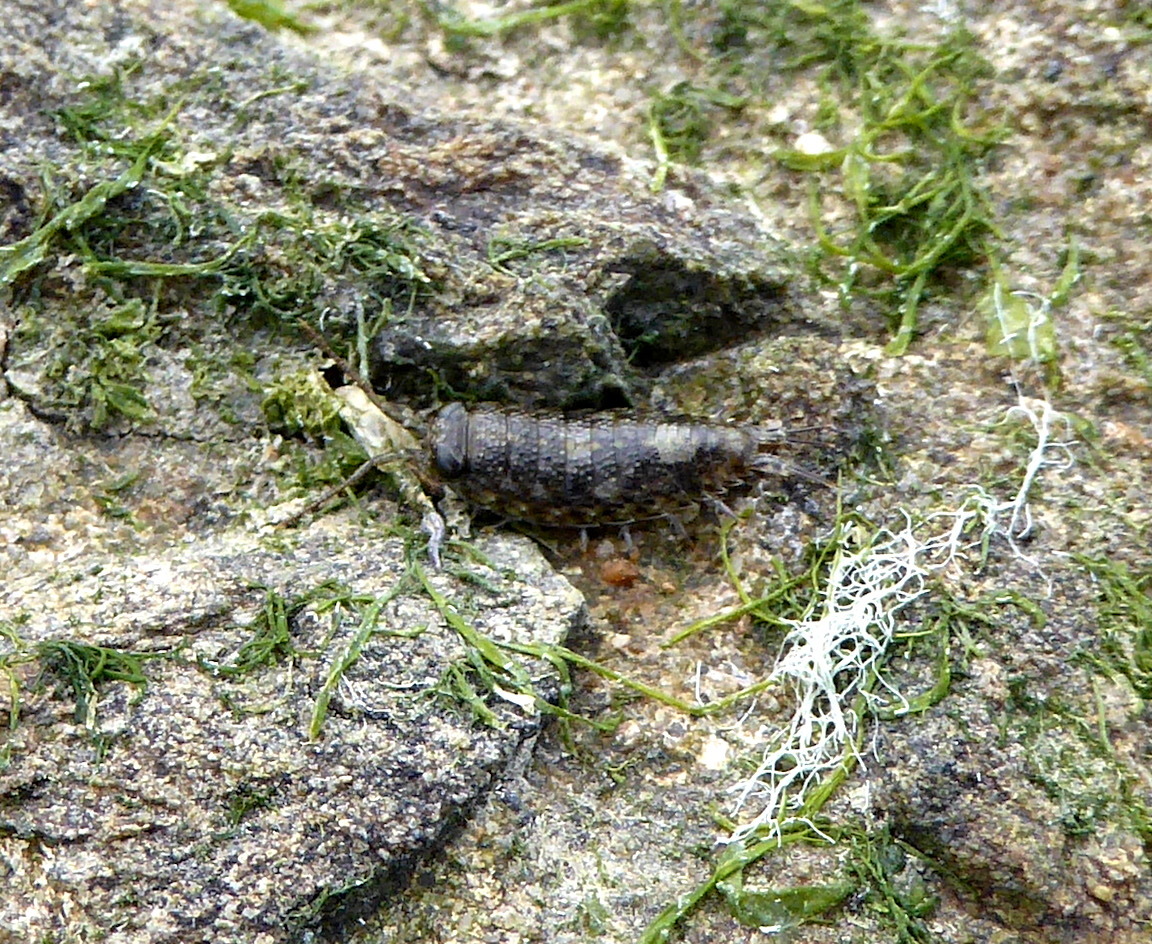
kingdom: Animalia
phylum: Arthropoda
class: Malacostraca
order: Isopoda
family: Ligiidae
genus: Ligia
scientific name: Ligia occidentalis
